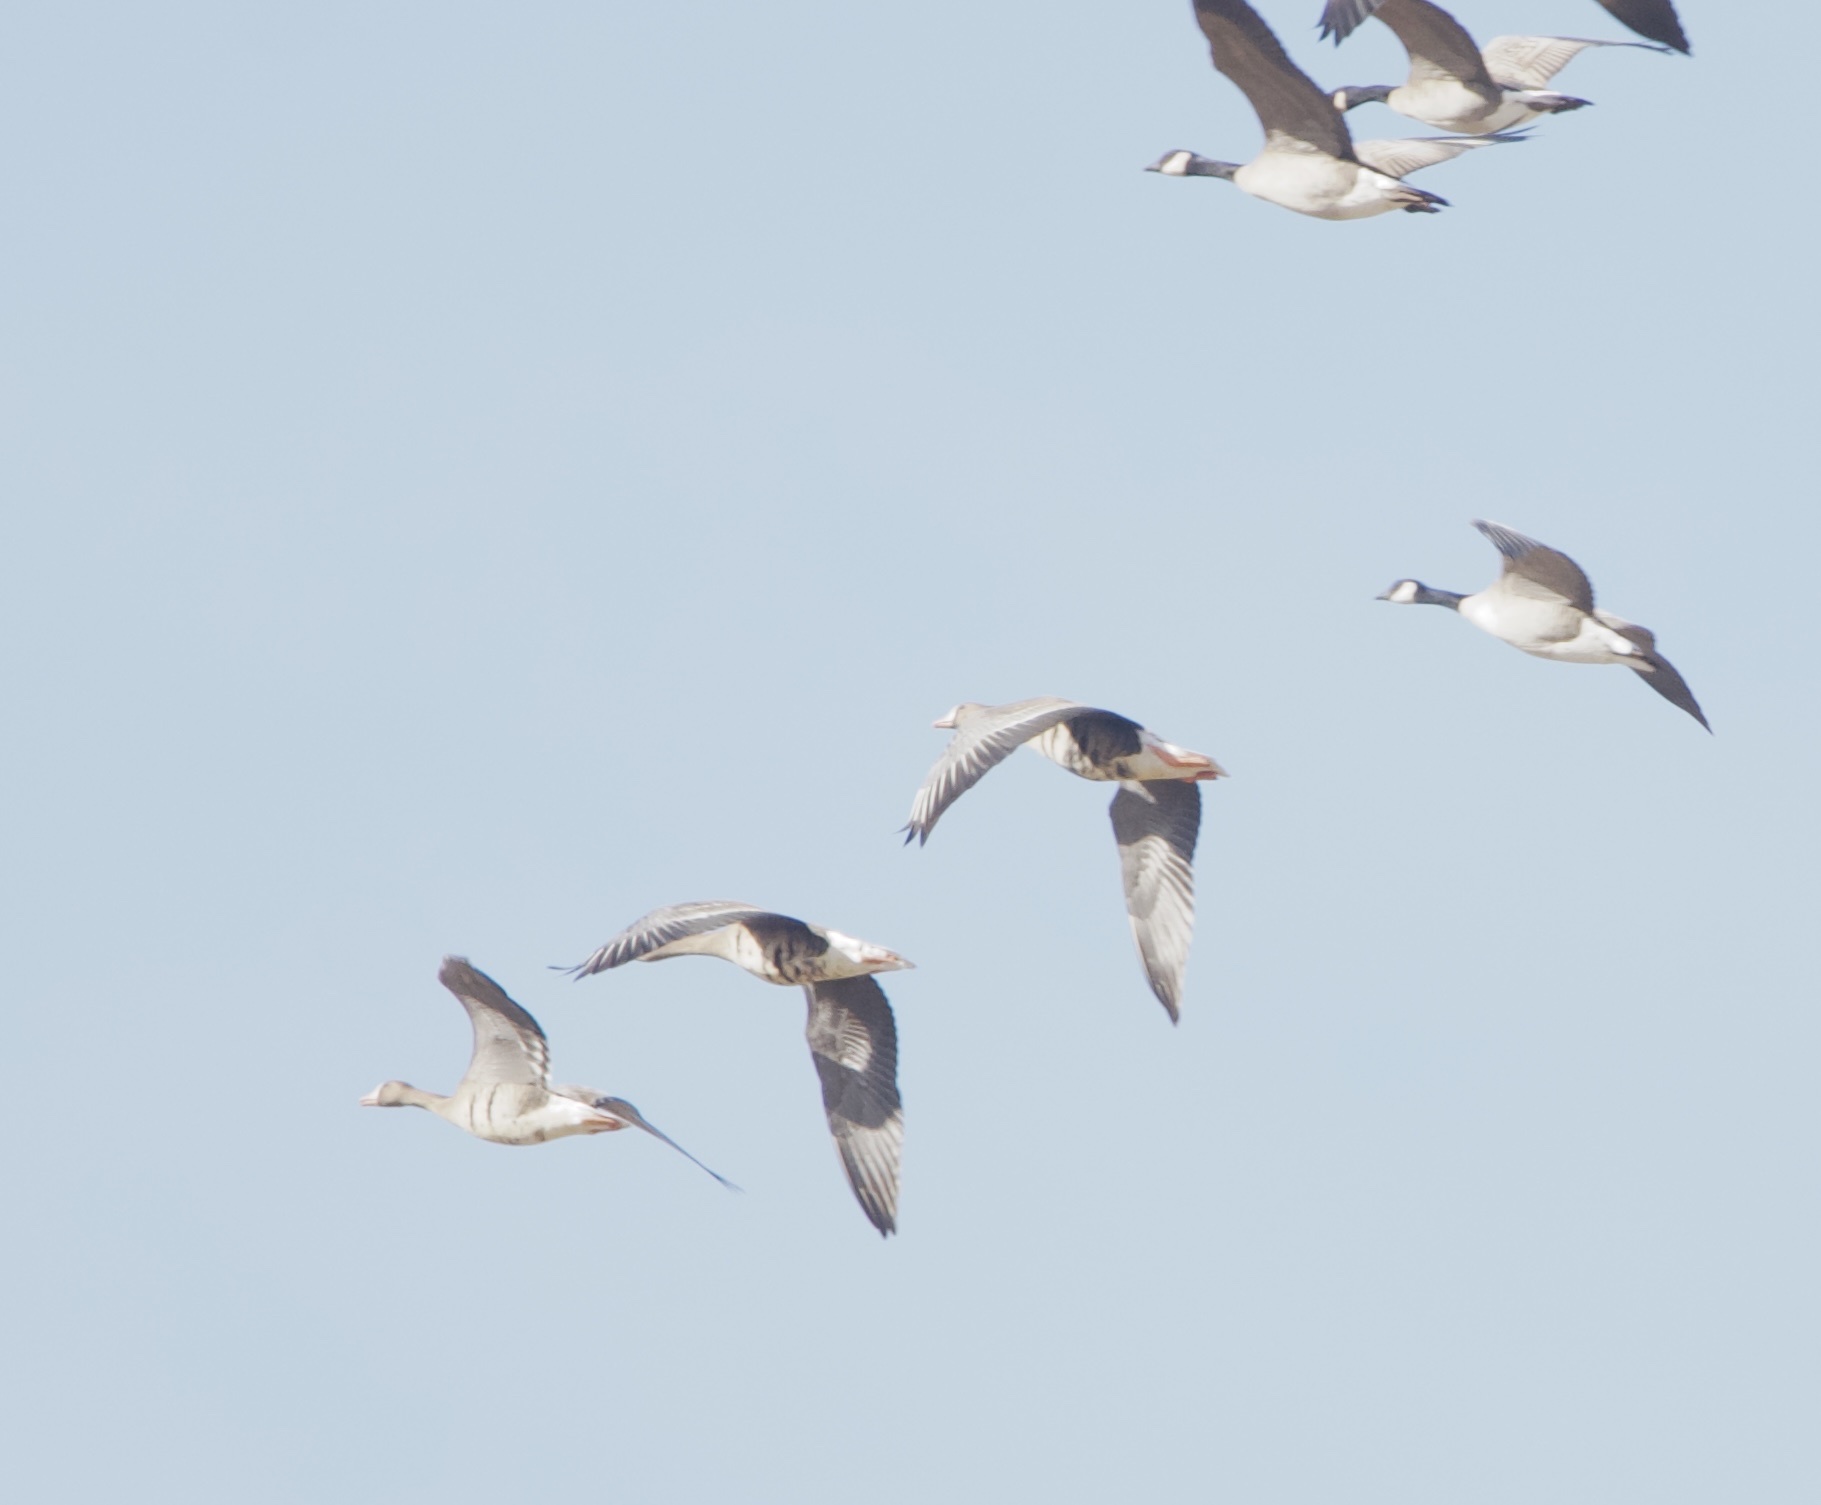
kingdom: Animalia
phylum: Chordata
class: Aves
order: Anseriformes
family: Anatidae
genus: Anser
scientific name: Anser albifrons
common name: Greater white-fronted goose
